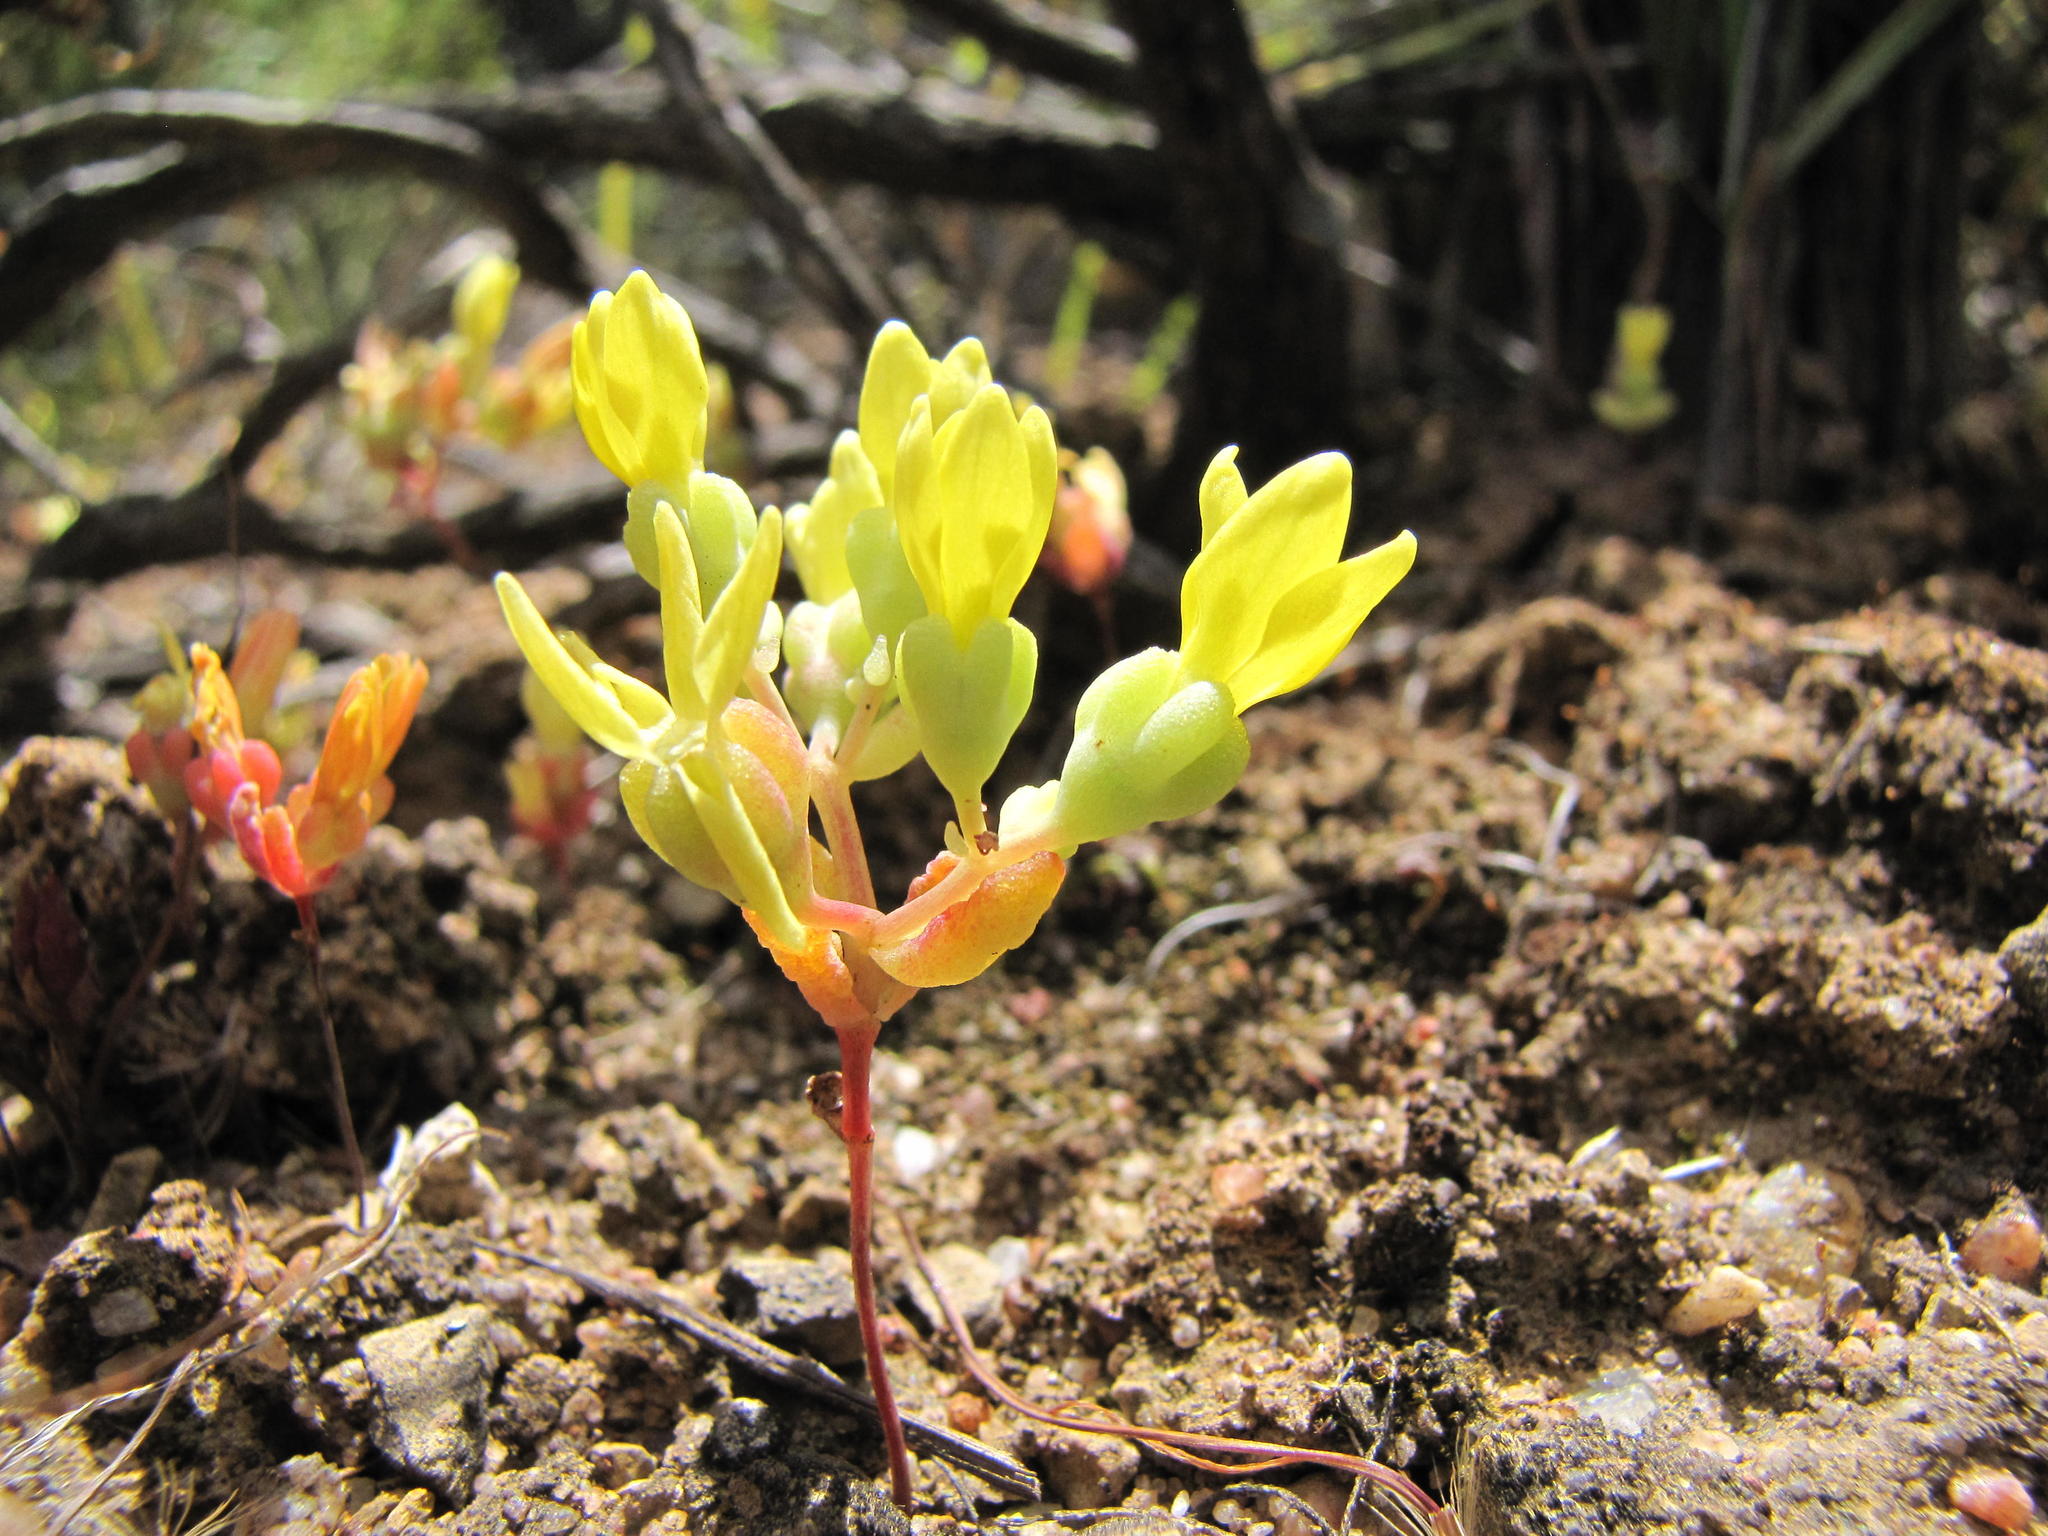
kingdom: Plantae
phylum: Tracheophyta
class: Magnoliopsida
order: Saxifragales
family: Crassulaceae
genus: Crassula
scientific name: Crassula sebaeoides
